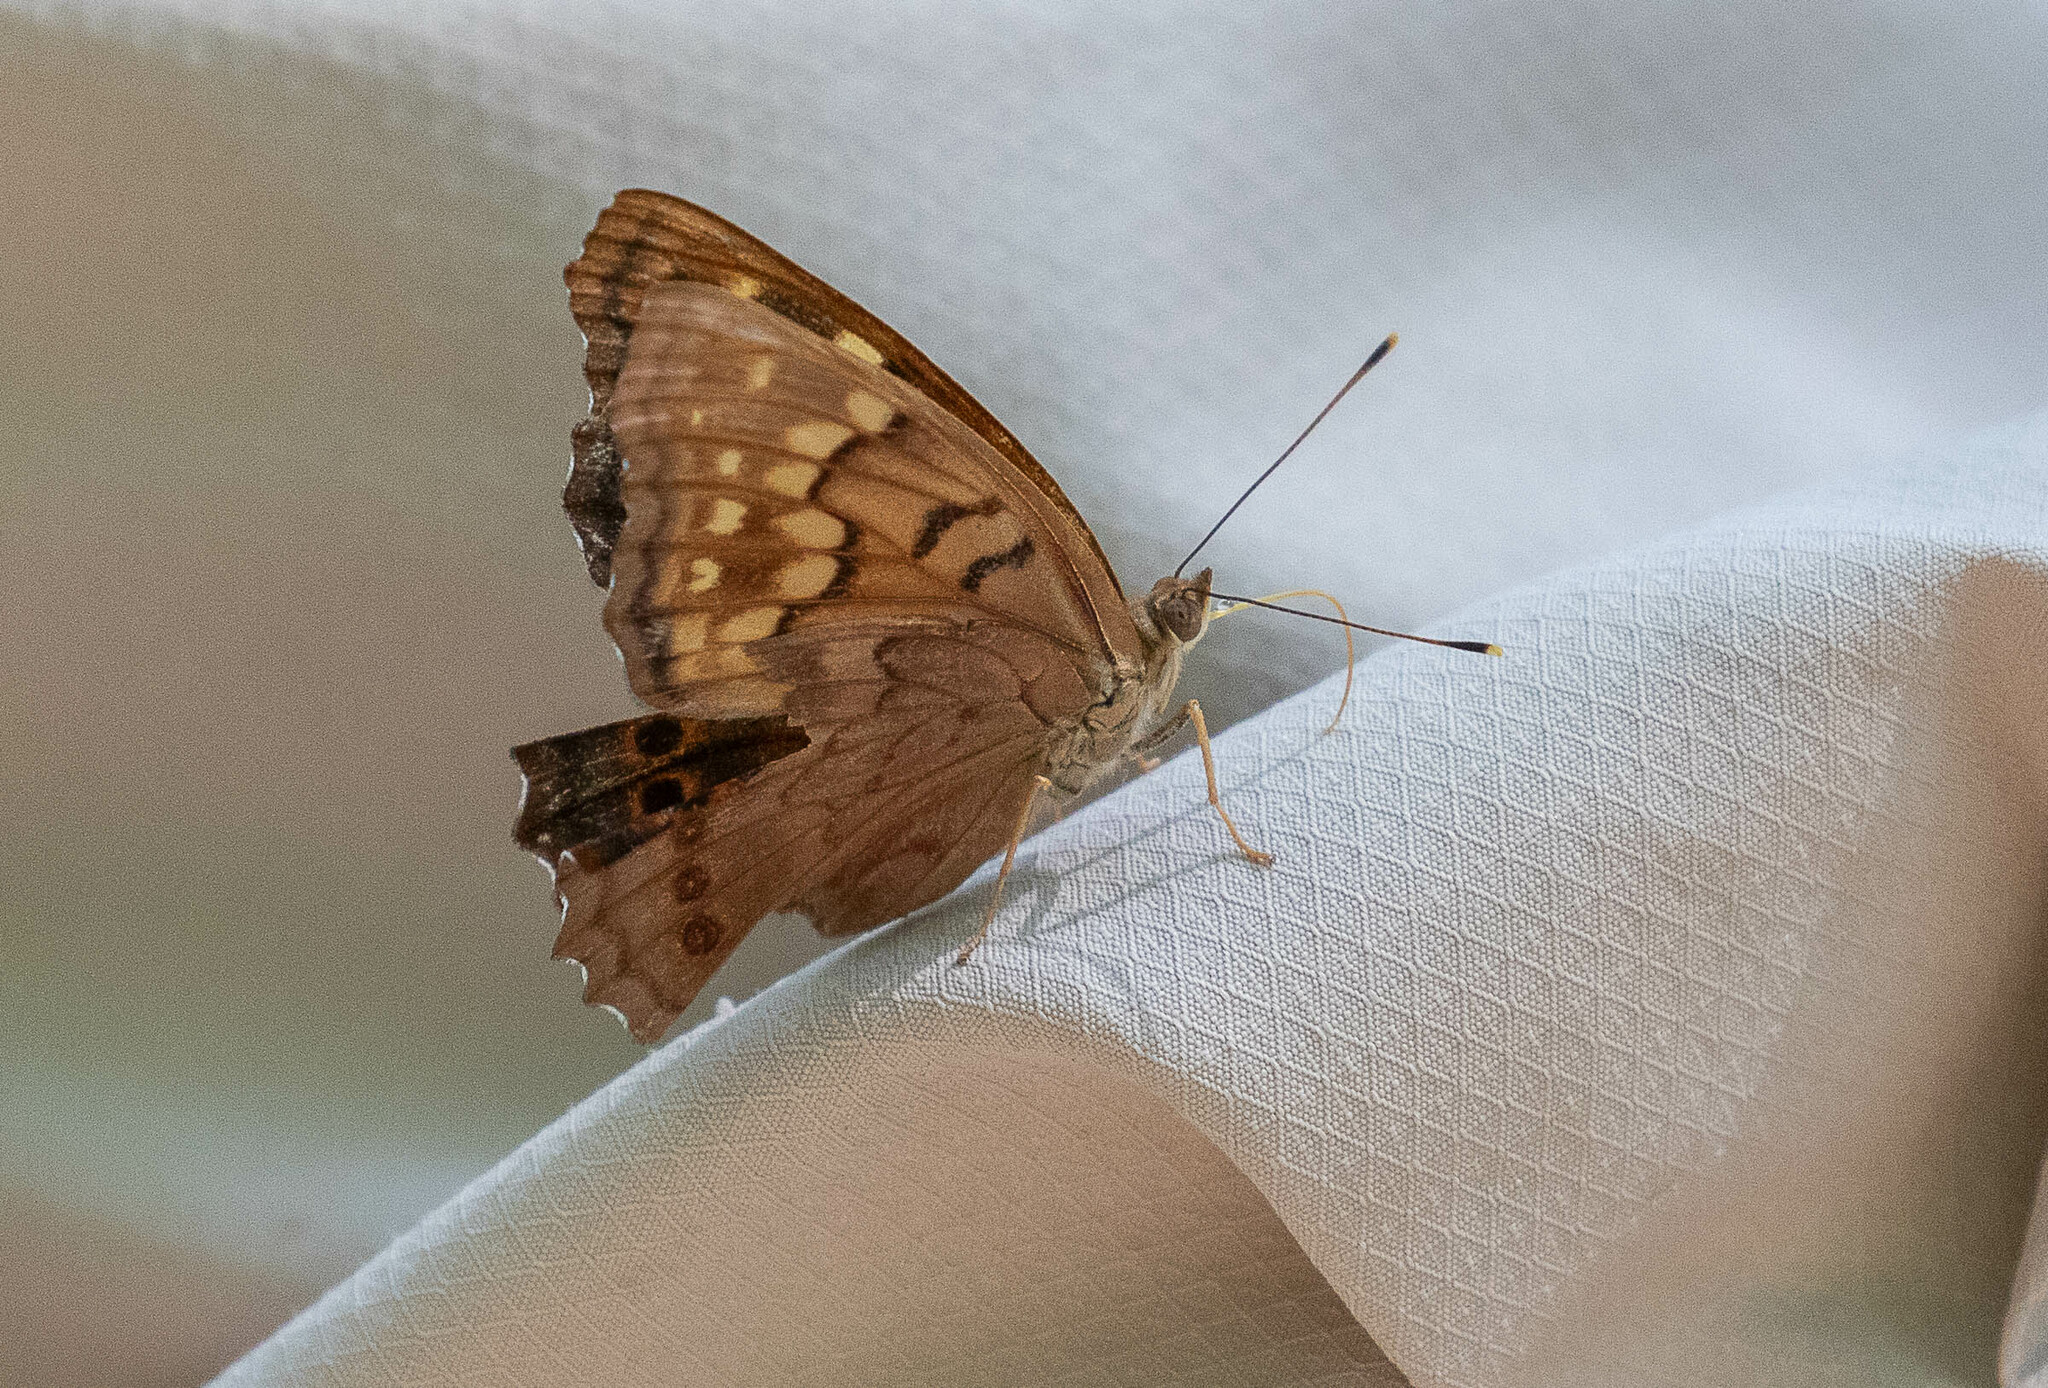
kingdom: Animalia
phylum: Arthropoda
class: Insecta
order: Lepidoptera
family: Nymphalidae
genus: Asterocampa
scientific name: Asterocampa clyton
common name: Tawny emperor
